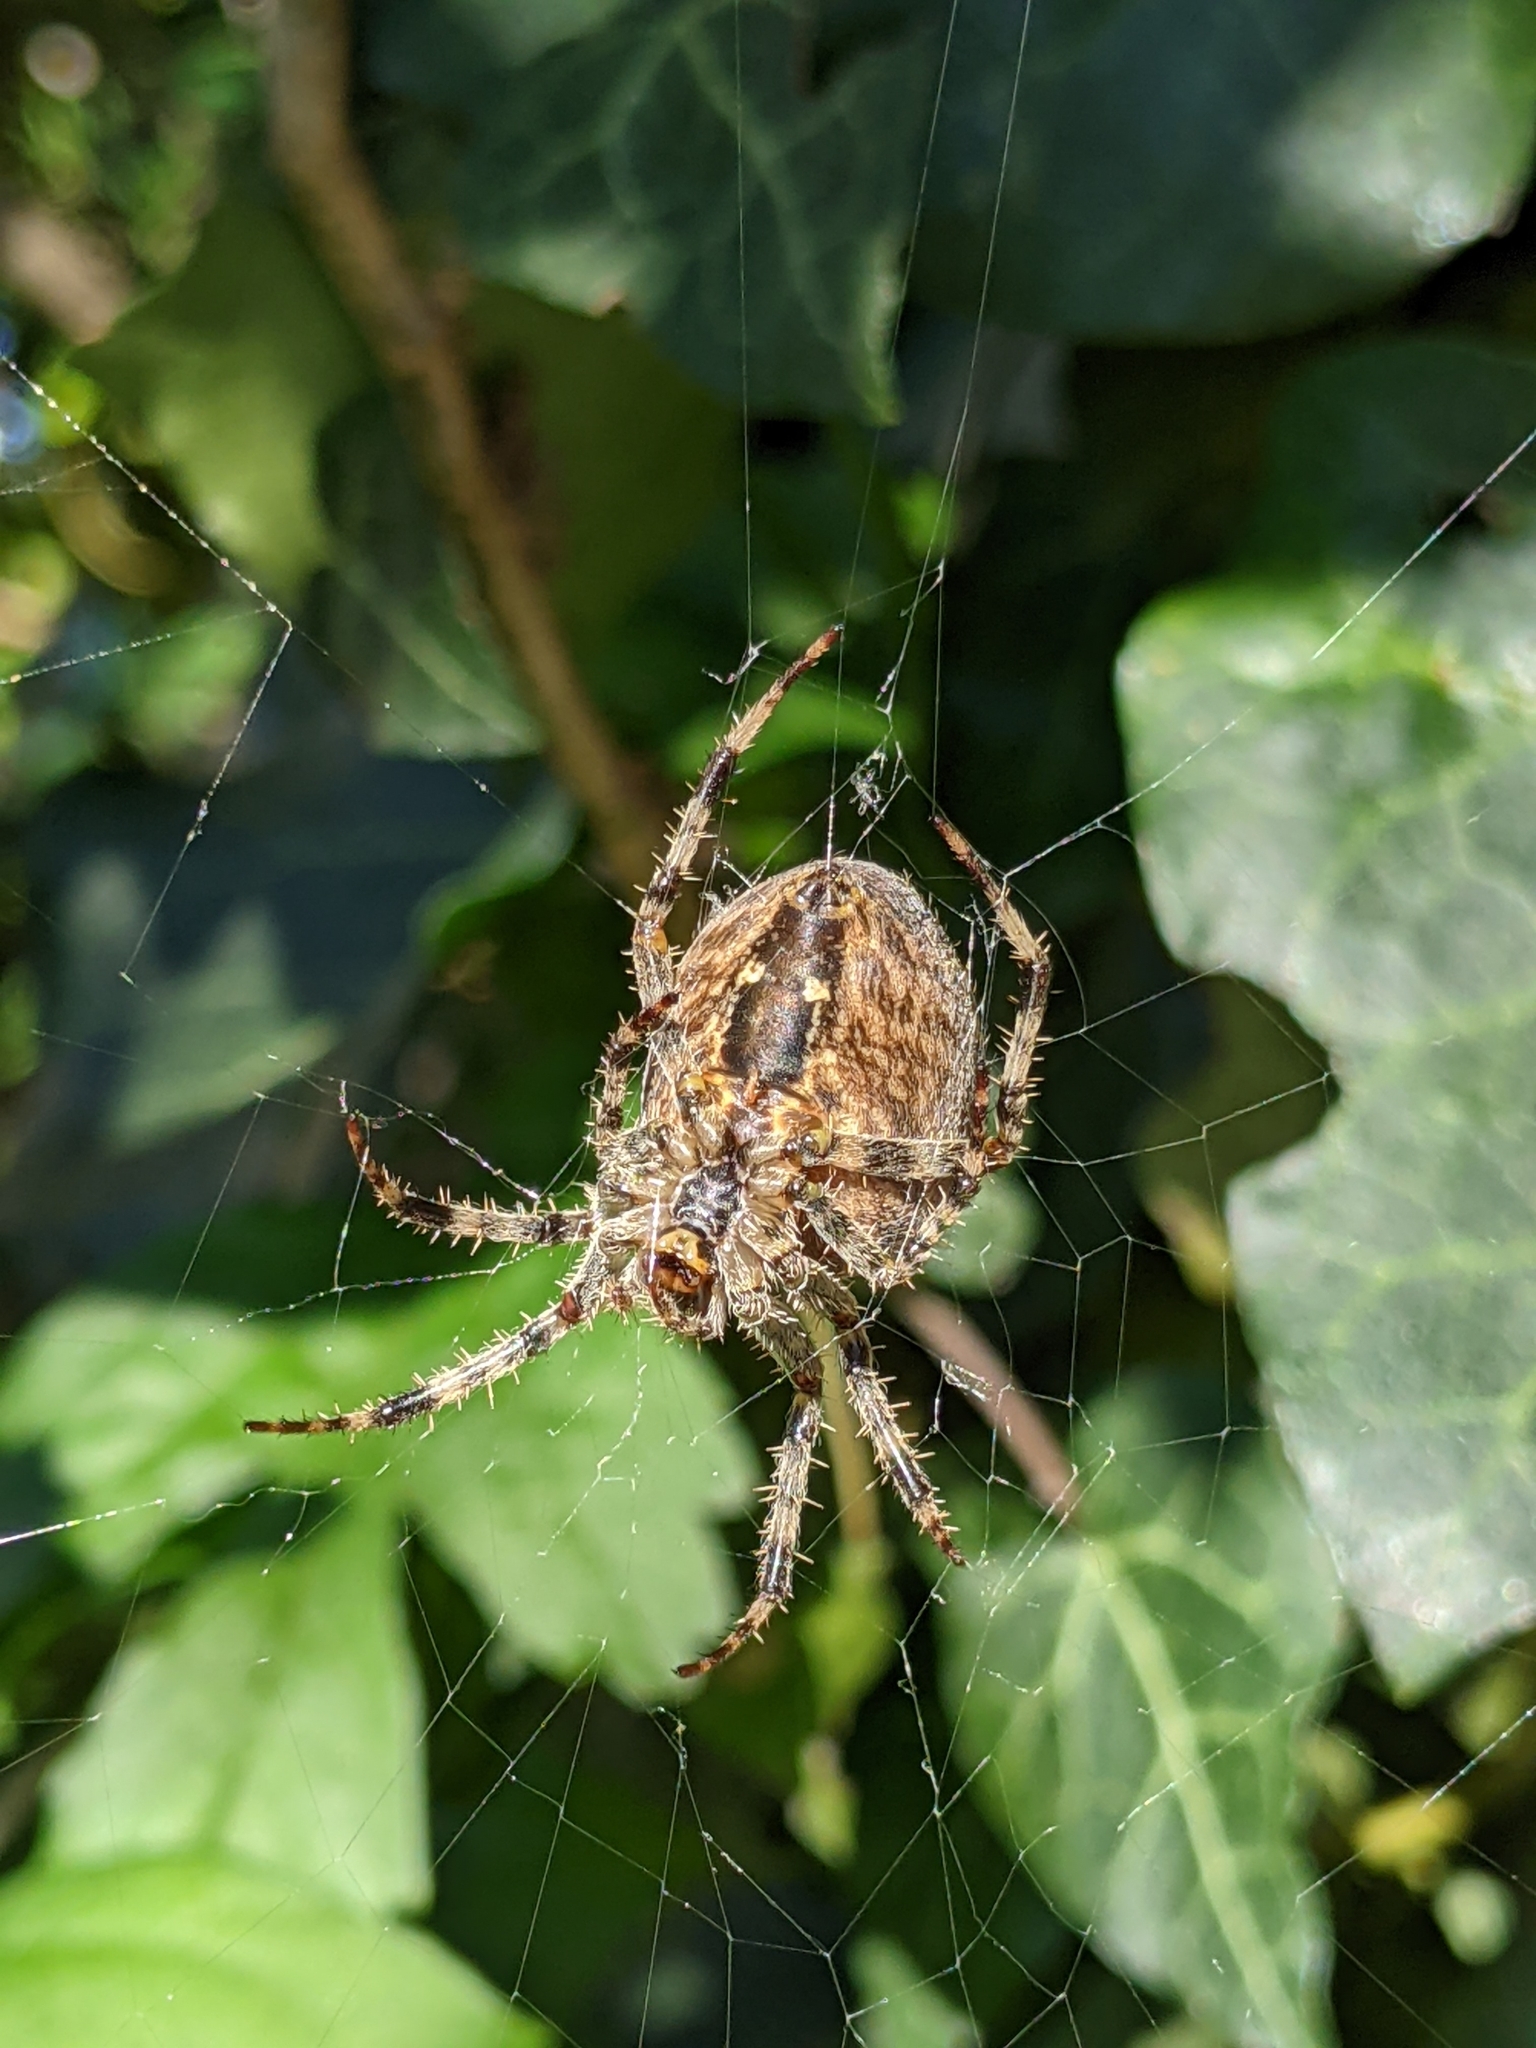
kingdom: Animalia
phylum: Arthropoda
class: Arachnida
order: Araneae
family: Araneidae
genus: Araneus
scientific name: Araneus diadematus
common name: Cross orbweaver
